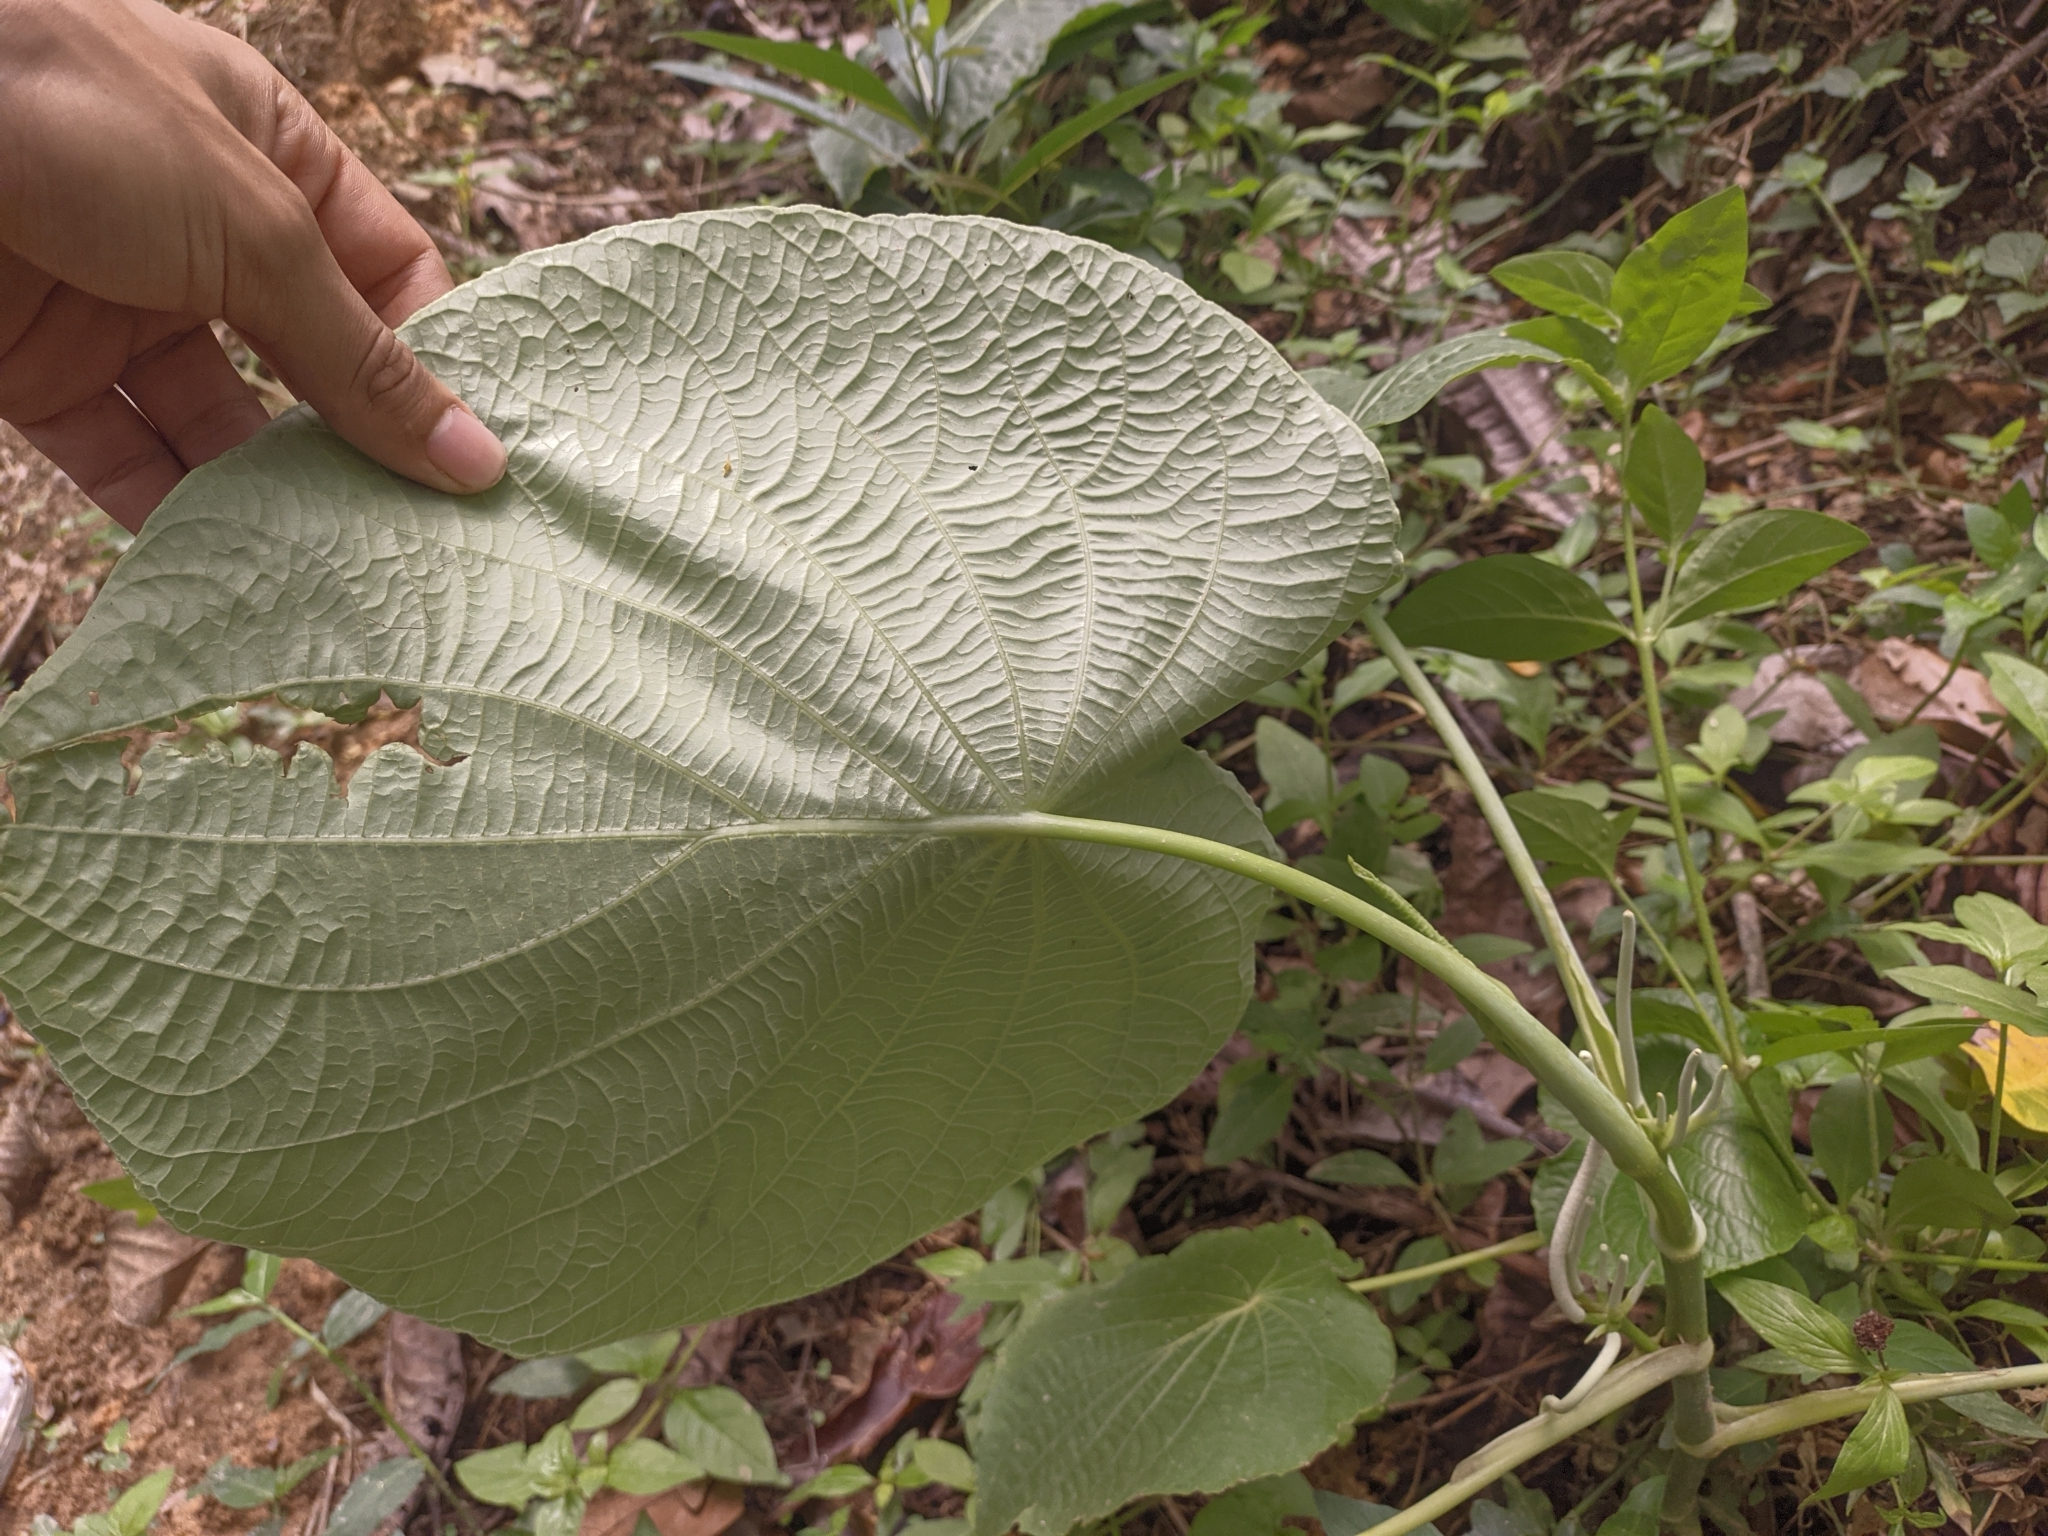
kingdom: Plantae
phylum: Tracheophyta
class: Magnoliopsida
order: Piperales
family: Piperaceae
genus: Piper
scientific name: Piper peltatum
